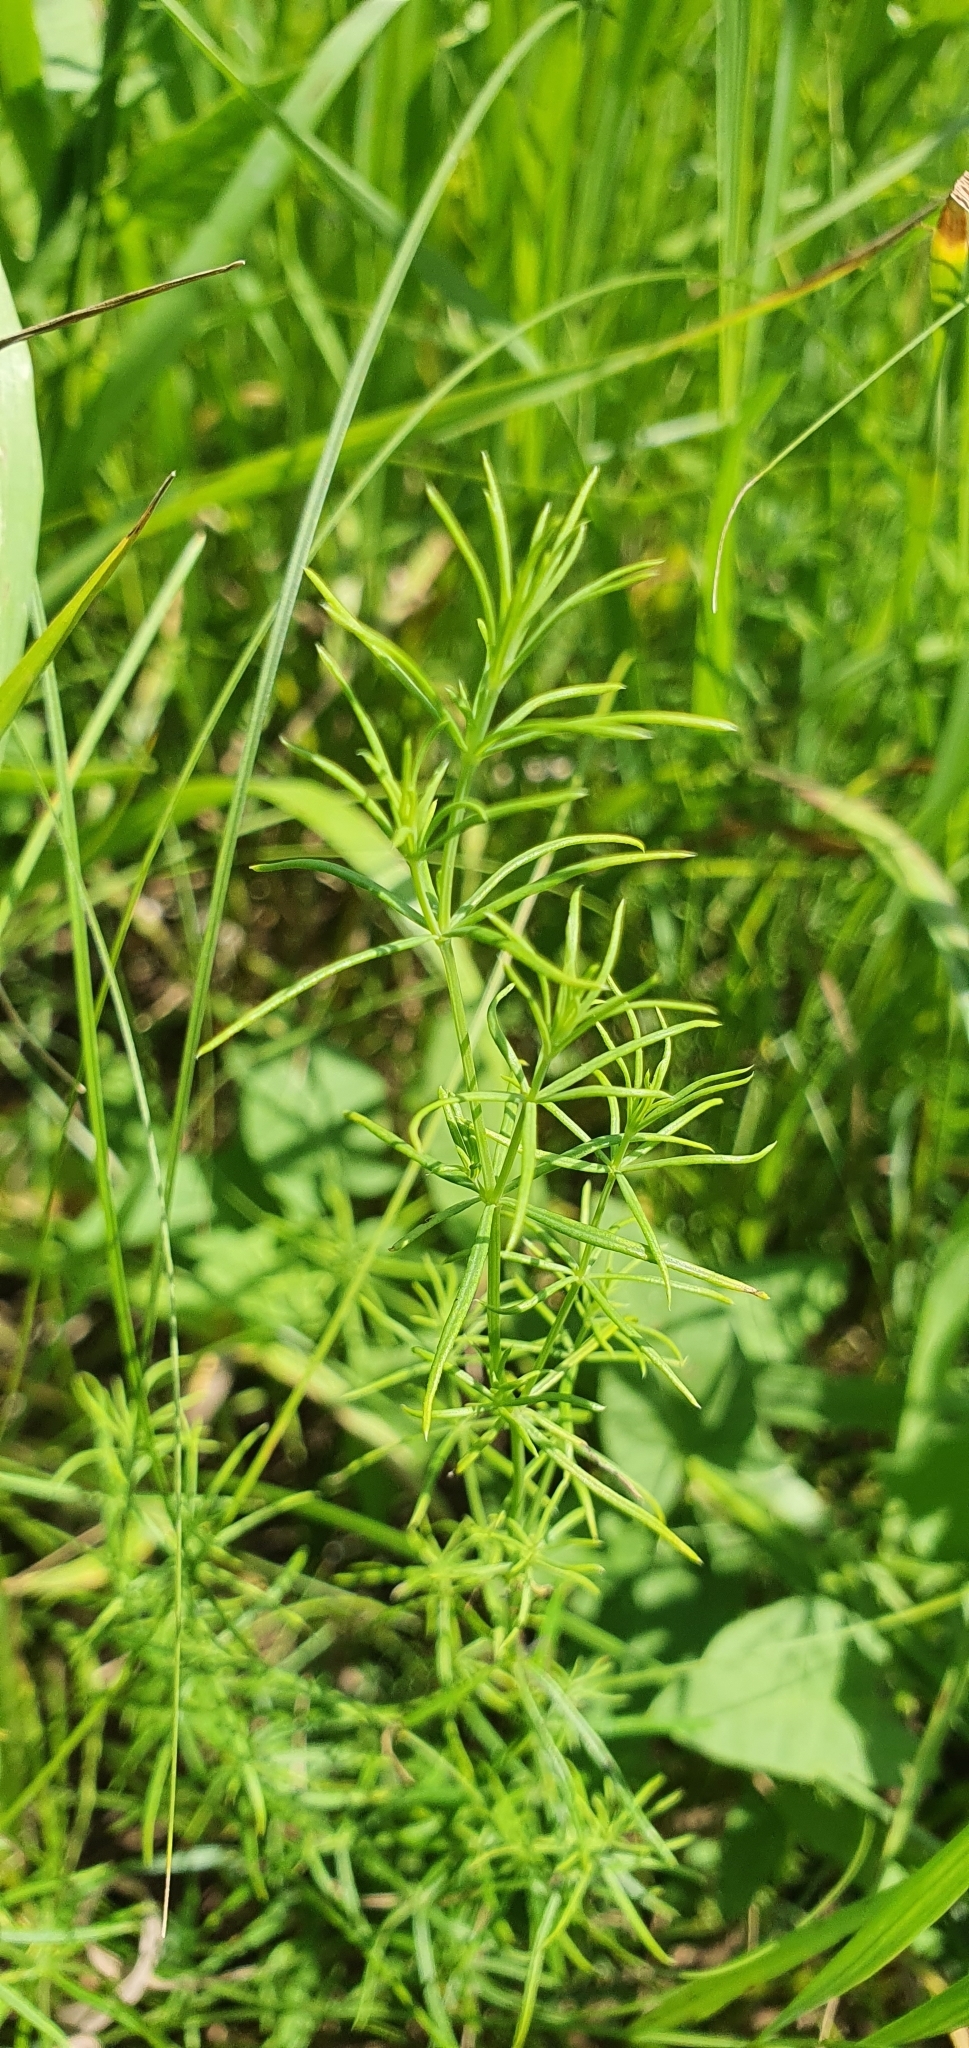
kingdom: Plantae
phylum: Tracheophyta
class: Magnoliopsida
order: Gentianales
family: Rubiaceae
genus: Galium
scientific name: Galium verum
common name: Lady's bedstraw
